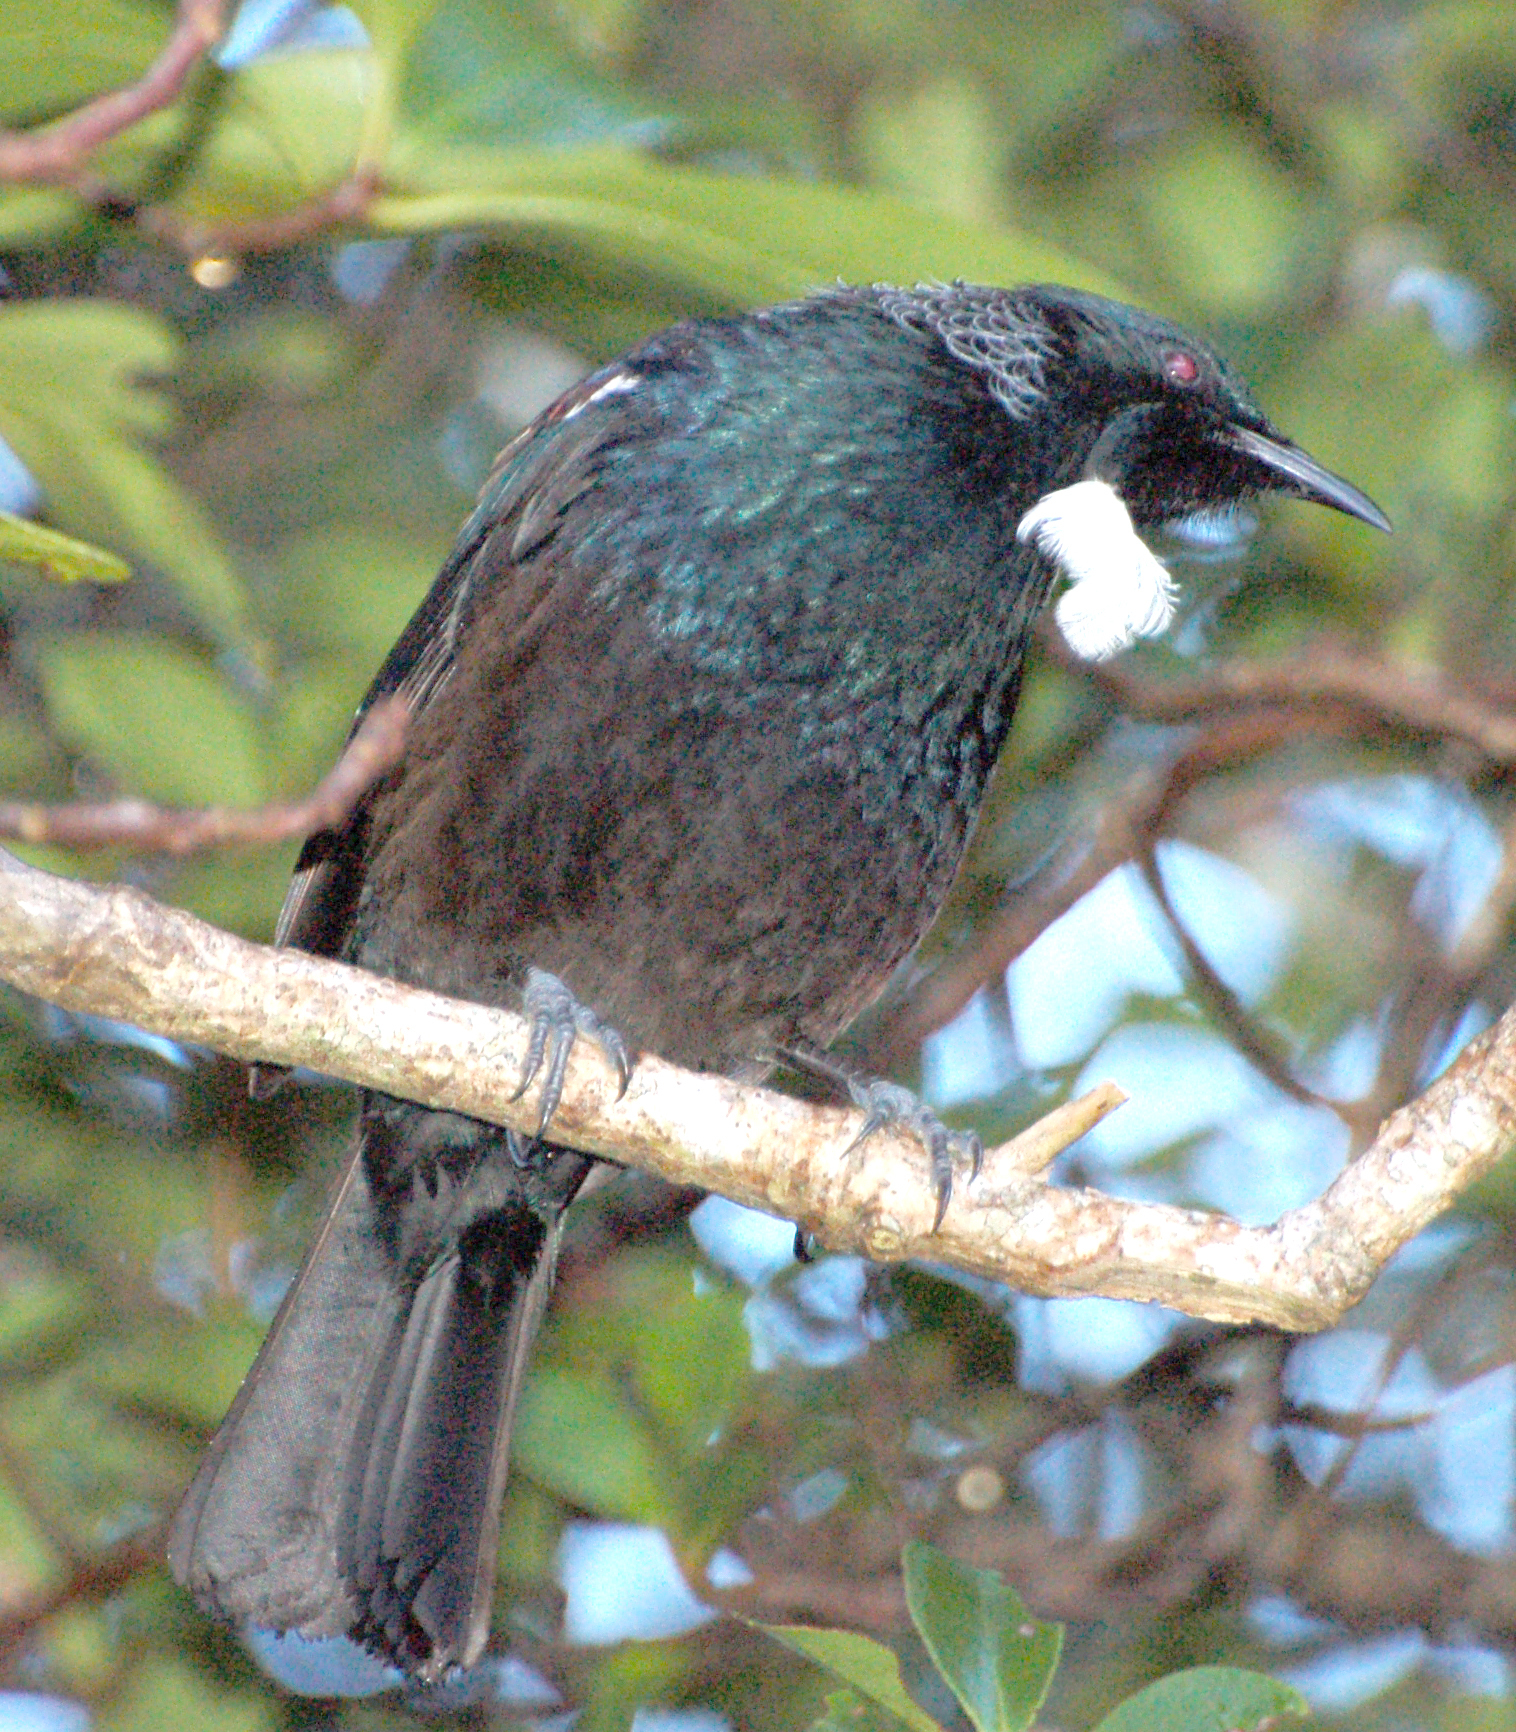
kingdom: Animalia
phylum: Chordata
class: Aves
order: Passeriformes
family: Meliphagidae
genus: Prosthemadera
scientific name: Prosthemadera novaeseelandiae
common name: Tui
